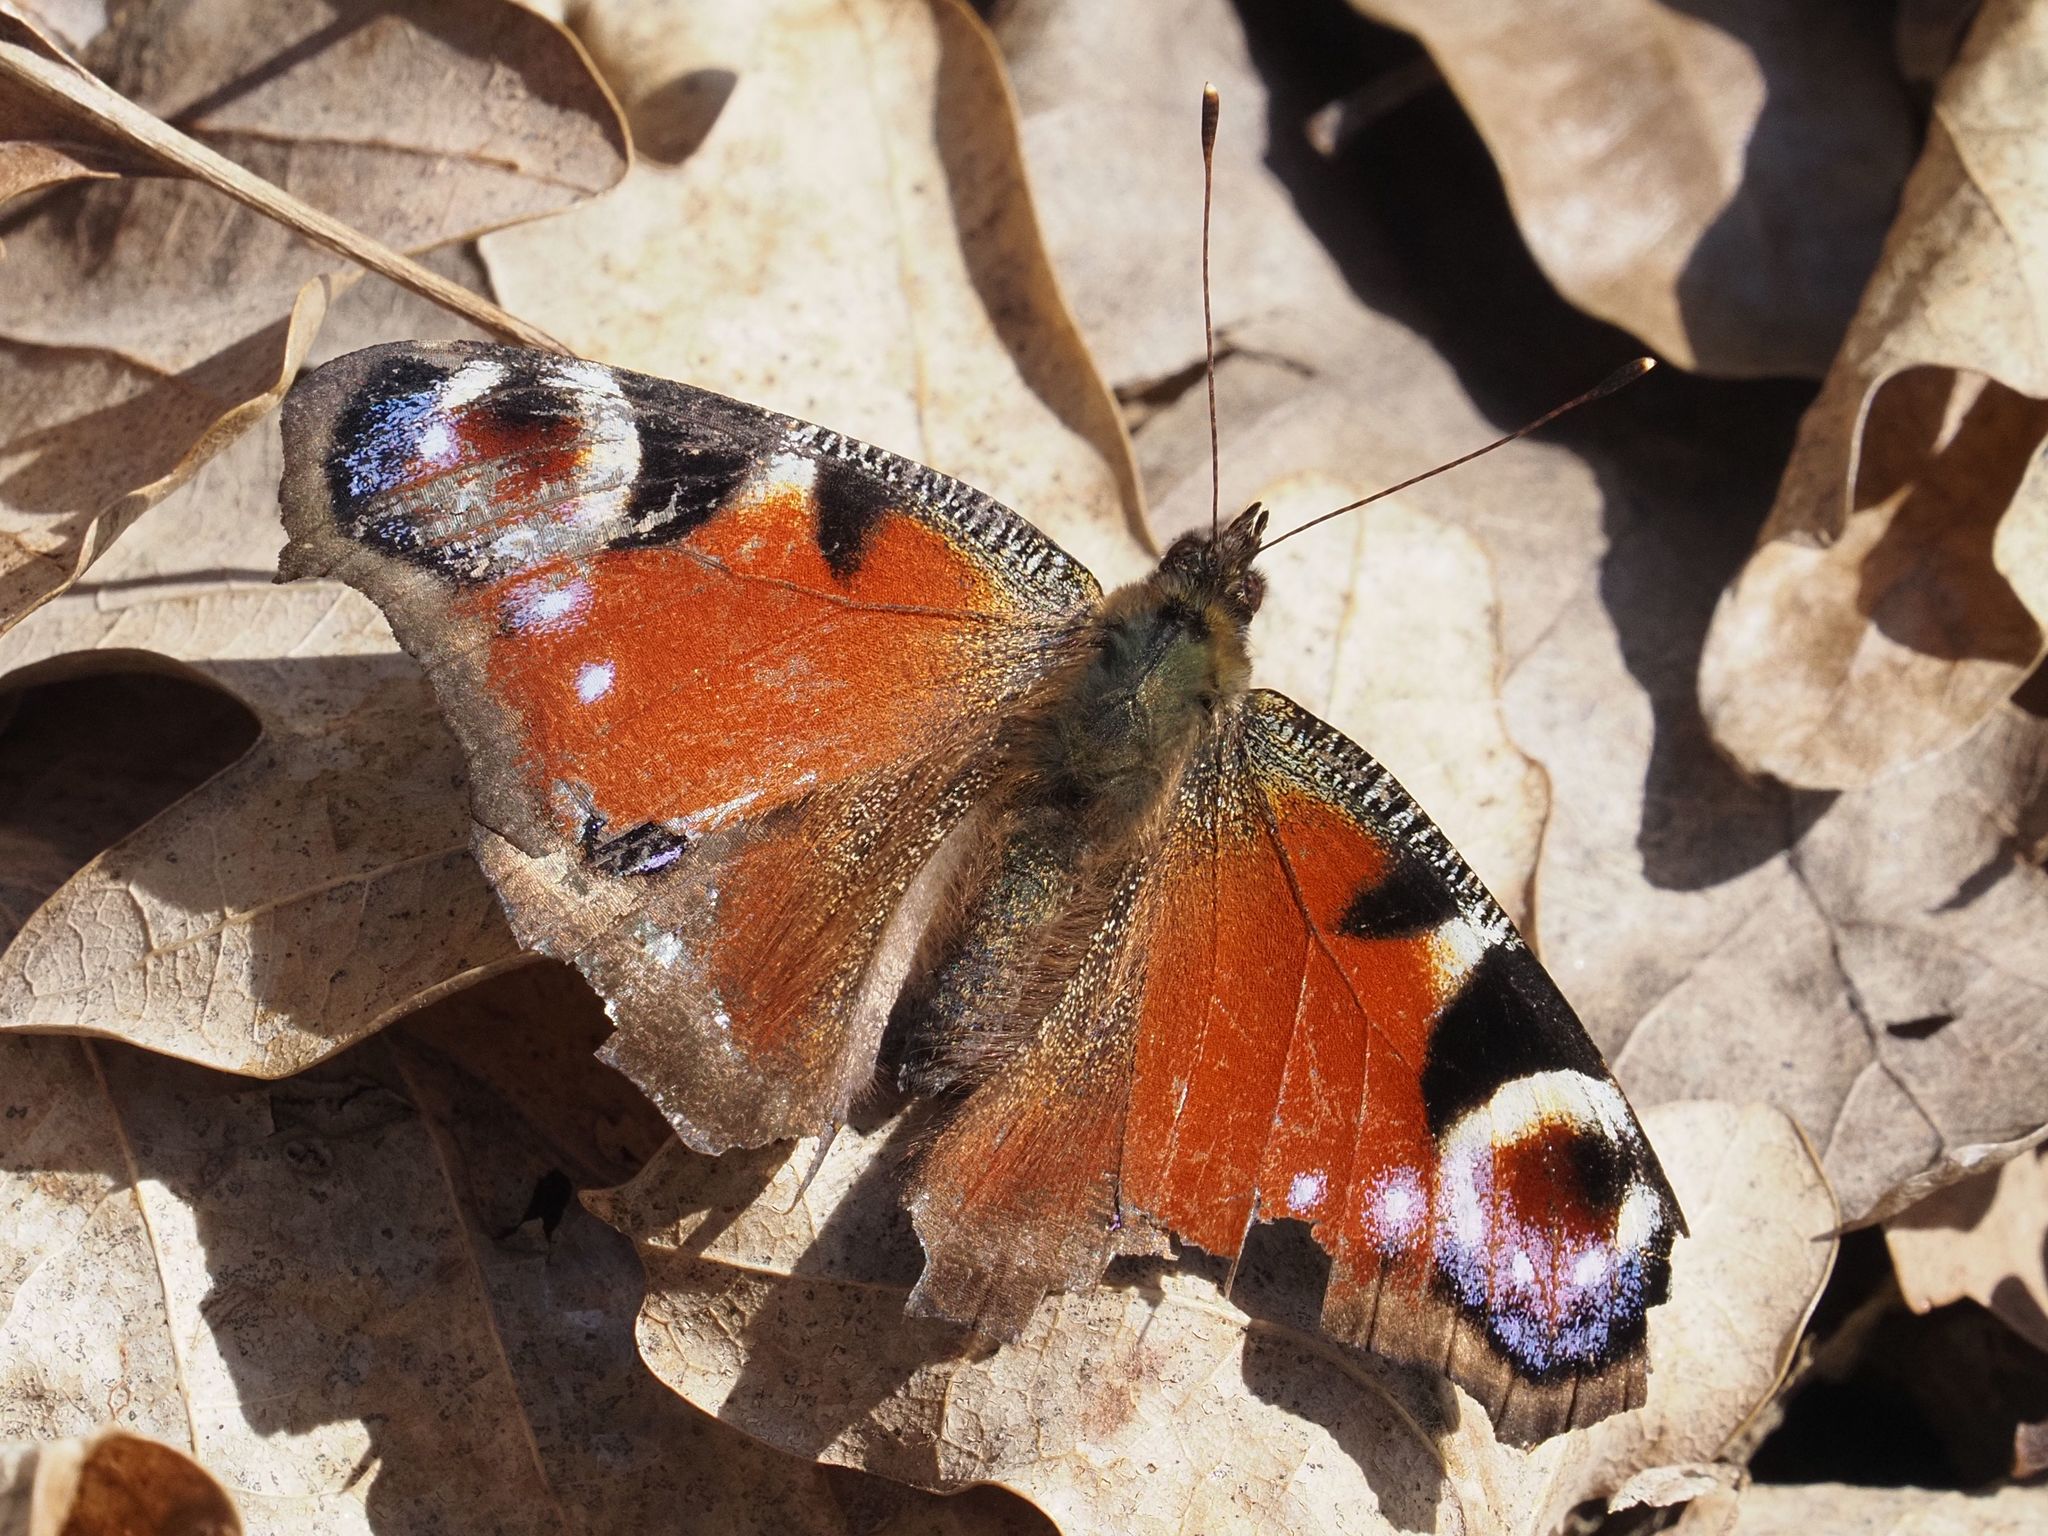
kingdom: Animalia
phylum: Arthropoda
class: Insecta
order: Lepidoptera
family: Nymphalidae
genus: Aglais
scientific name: Aglais io
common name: Peacock
